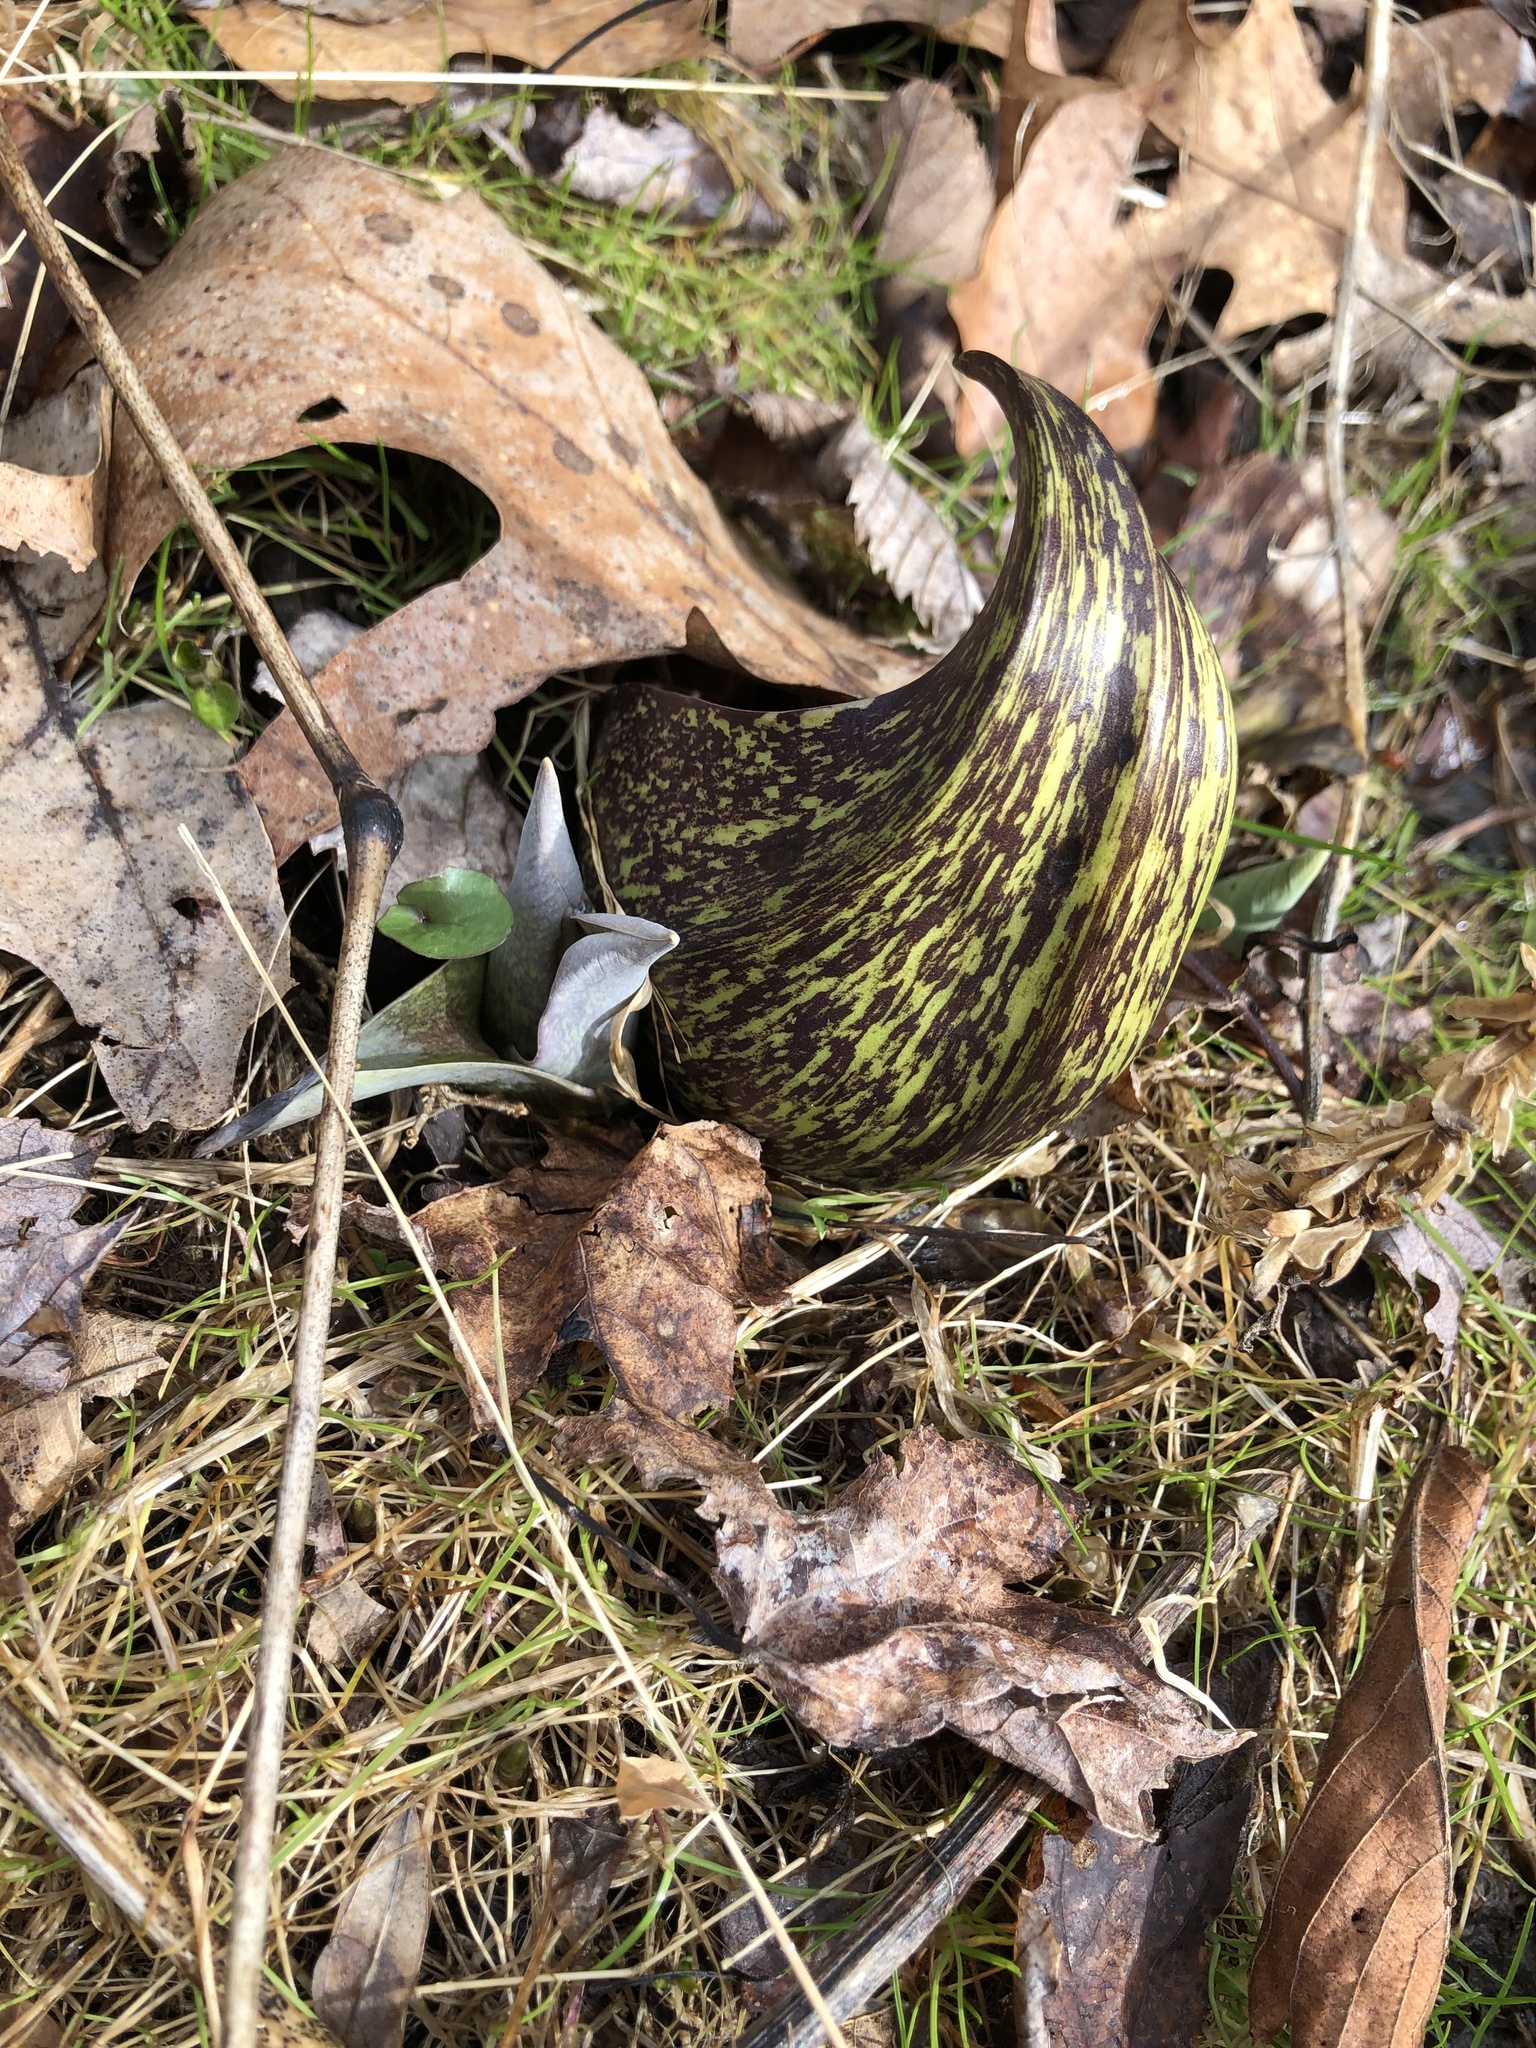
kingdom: Plantae
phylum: Tracheophyta
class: Liliopsida
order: Alismatales
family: Araceae
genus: Symplocarpus
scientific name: Symplocarpus foetidus
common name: Eastern skunk cabbage
